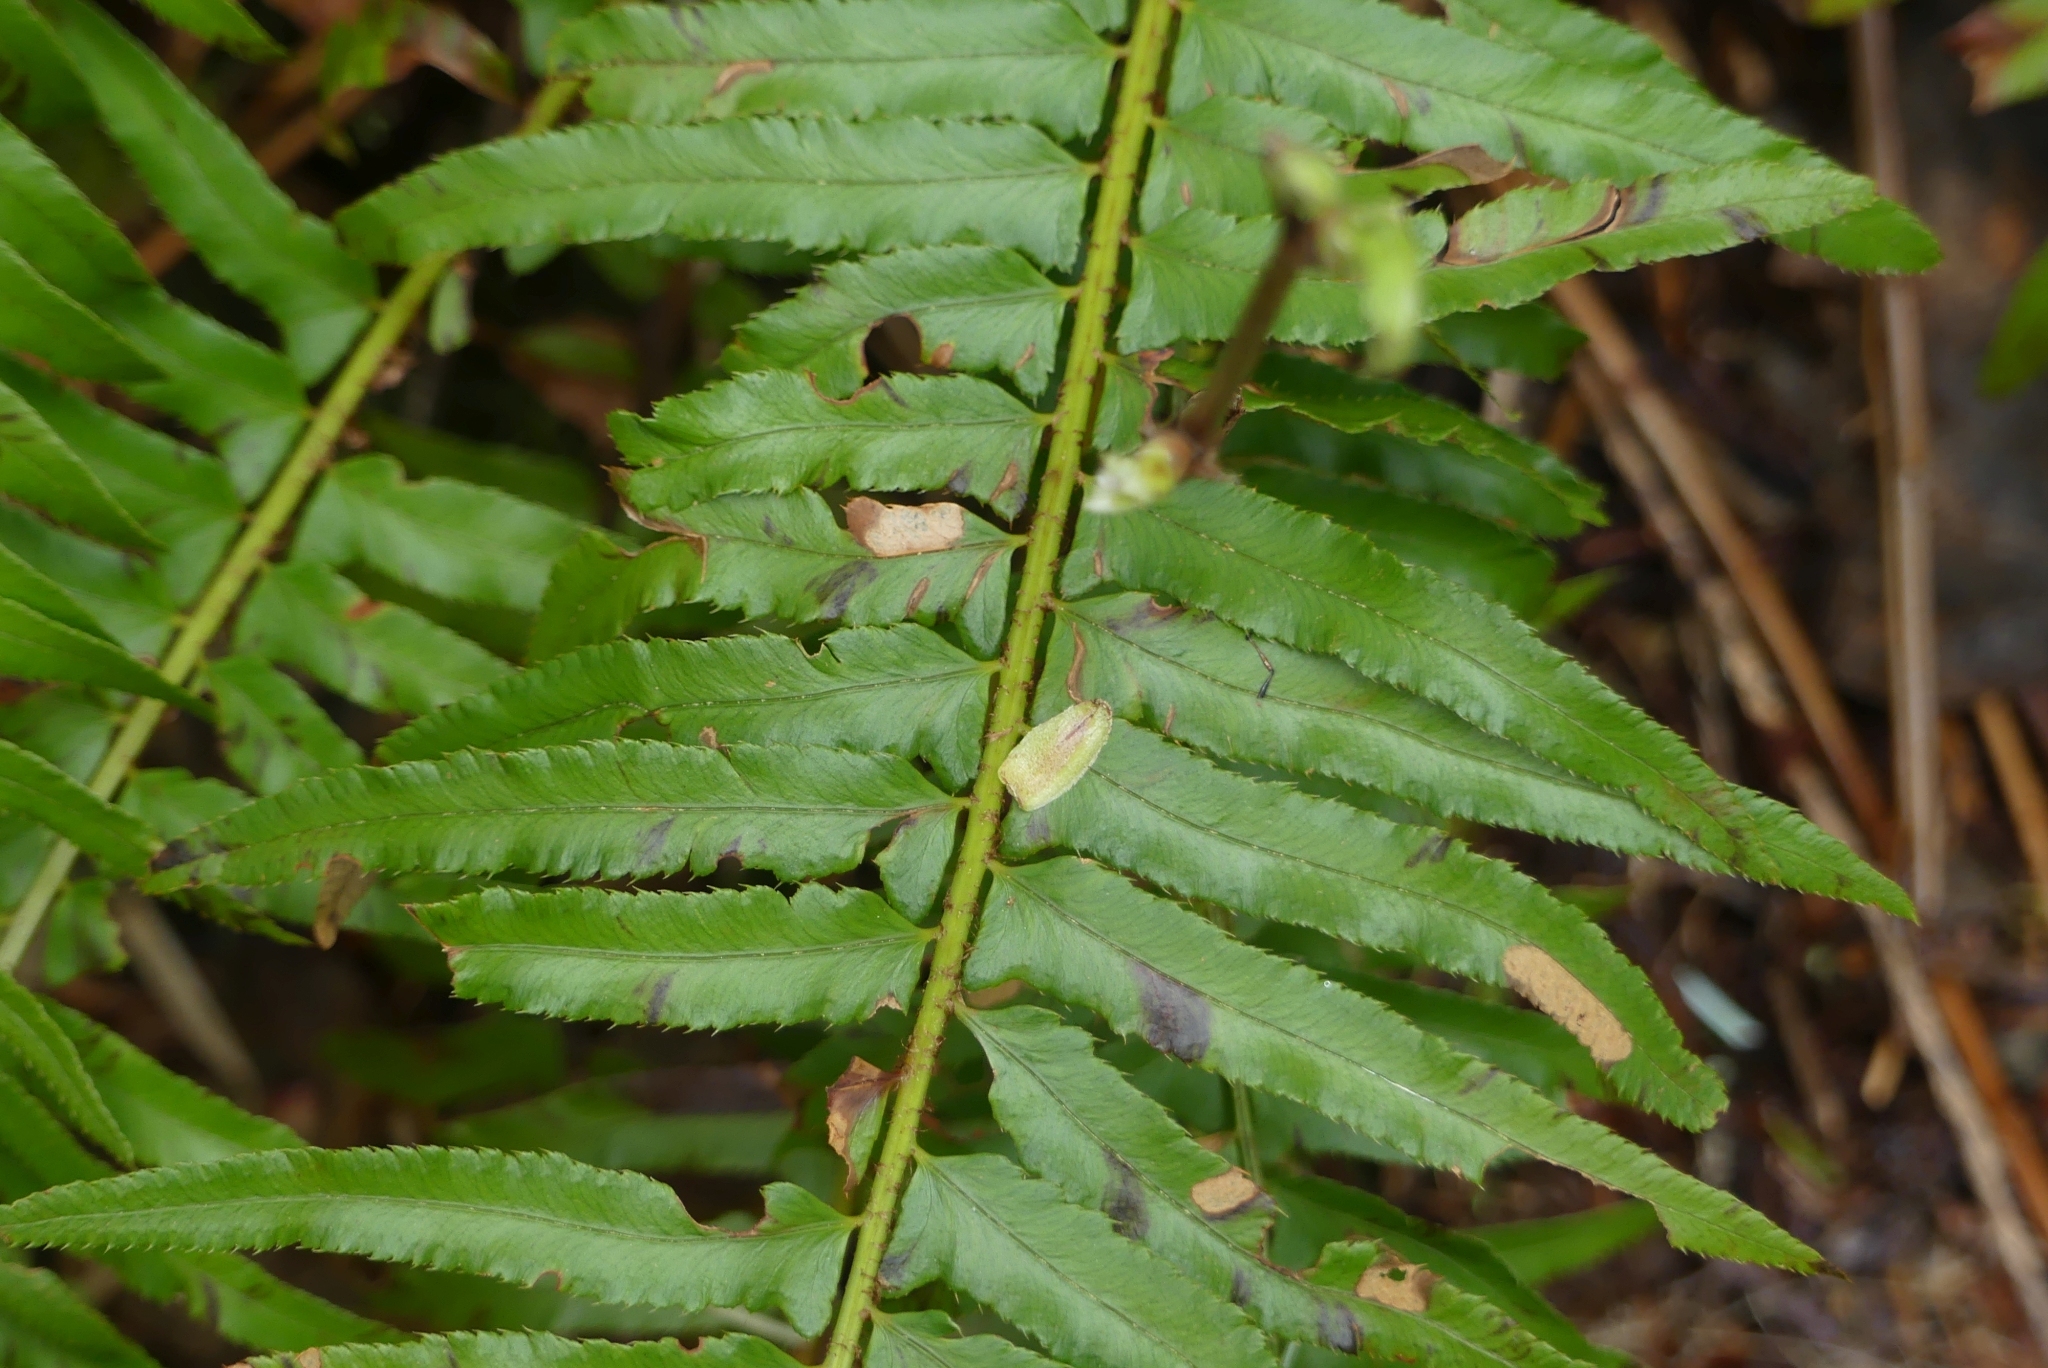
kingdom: Plantae
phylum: Tracheophyta
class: Polypodiopsida
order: Polypodiales
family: Dryopteridaceae
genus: Polystichum
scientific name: Polystichum munitum
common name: Western sword-fern
